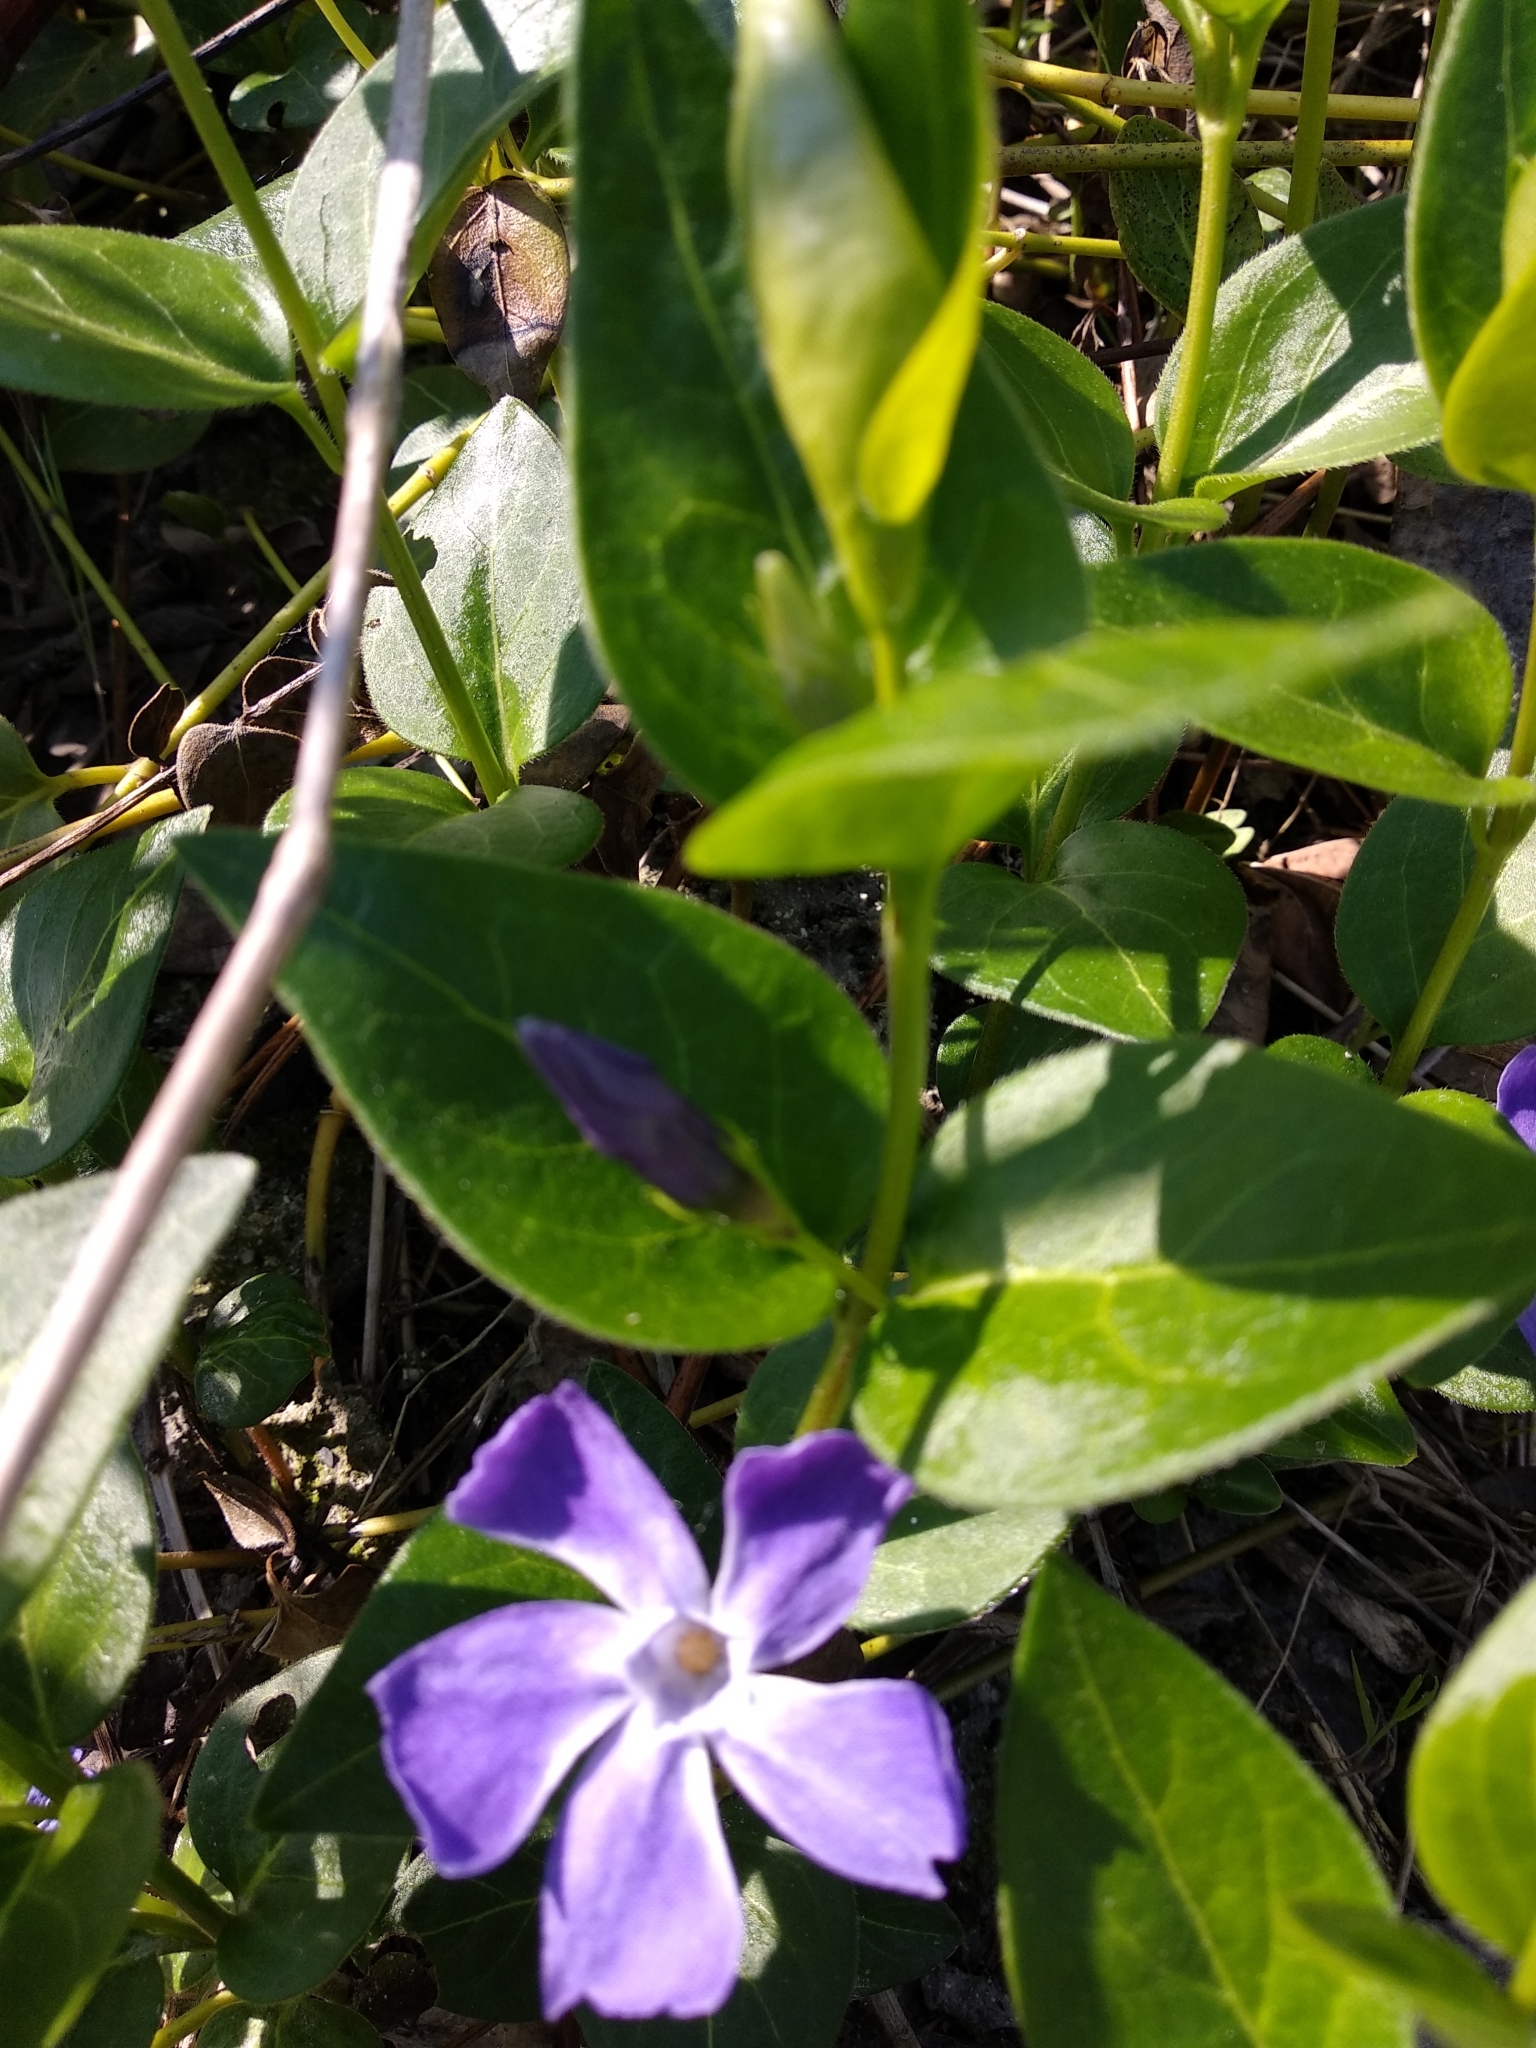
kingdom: Plantae
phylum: Tracheophyta
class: Magnoliopsida
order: Gentianales
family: Apocynaceae
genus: Vinca
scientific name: Vinca major
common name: Greater periwinkle
